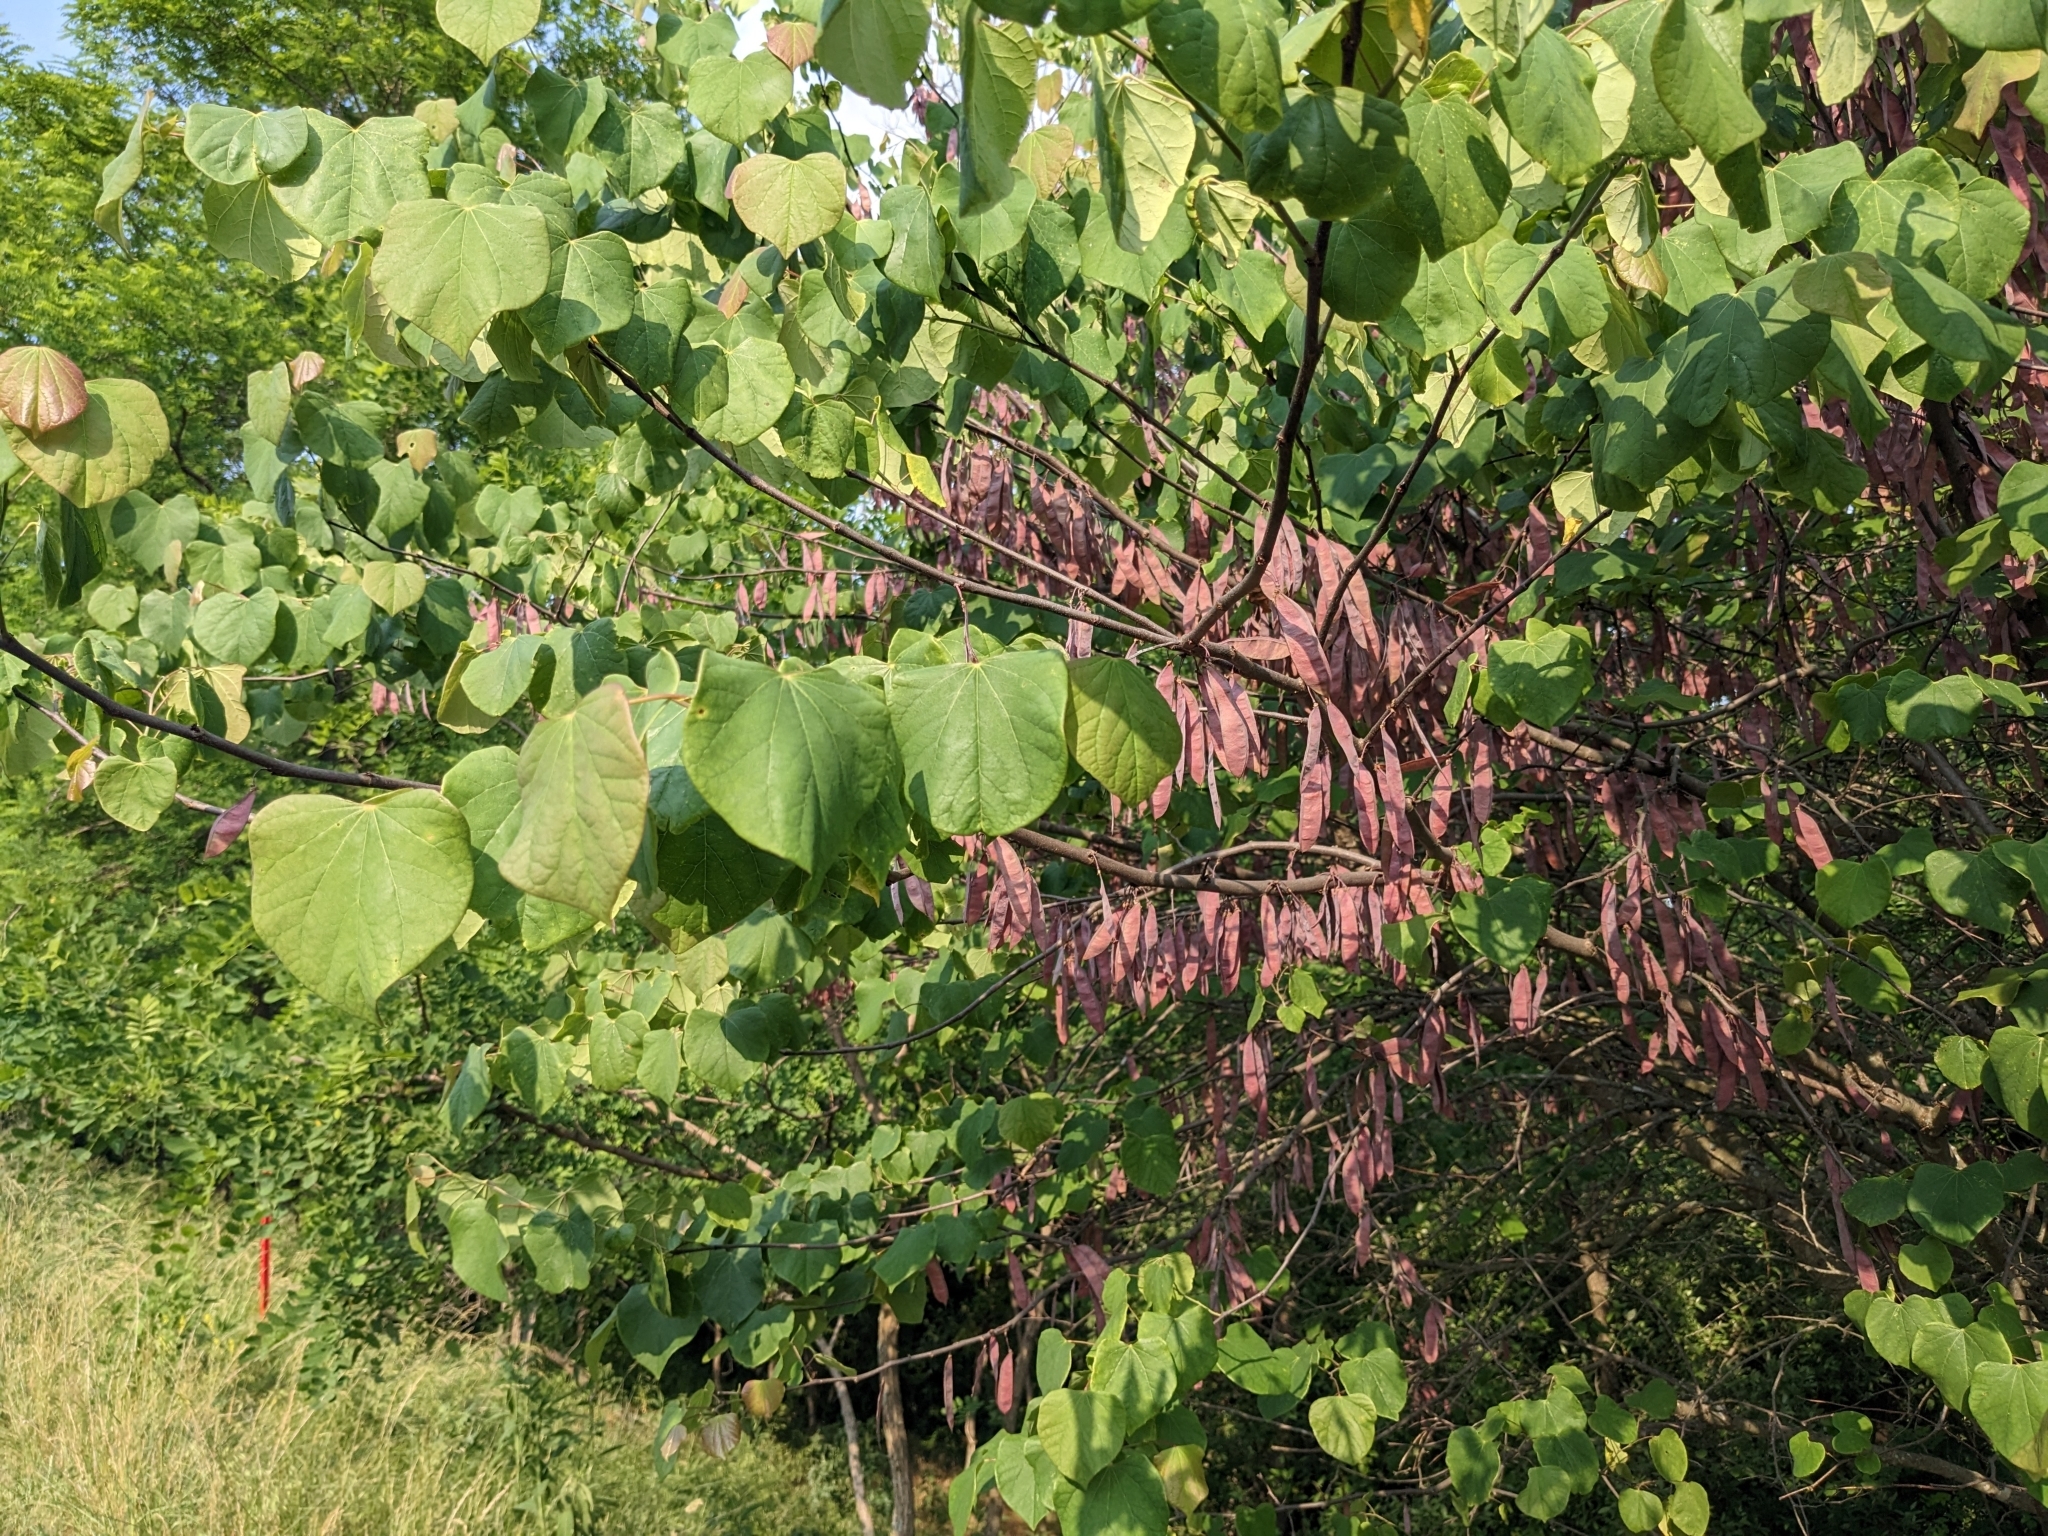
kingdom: Plantae
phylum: Tracheophyta
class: Magnoliopsida
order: Fabales
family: Fabaceae
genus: Cercis
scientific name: Cercis canadensis
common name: Eastern redbud
